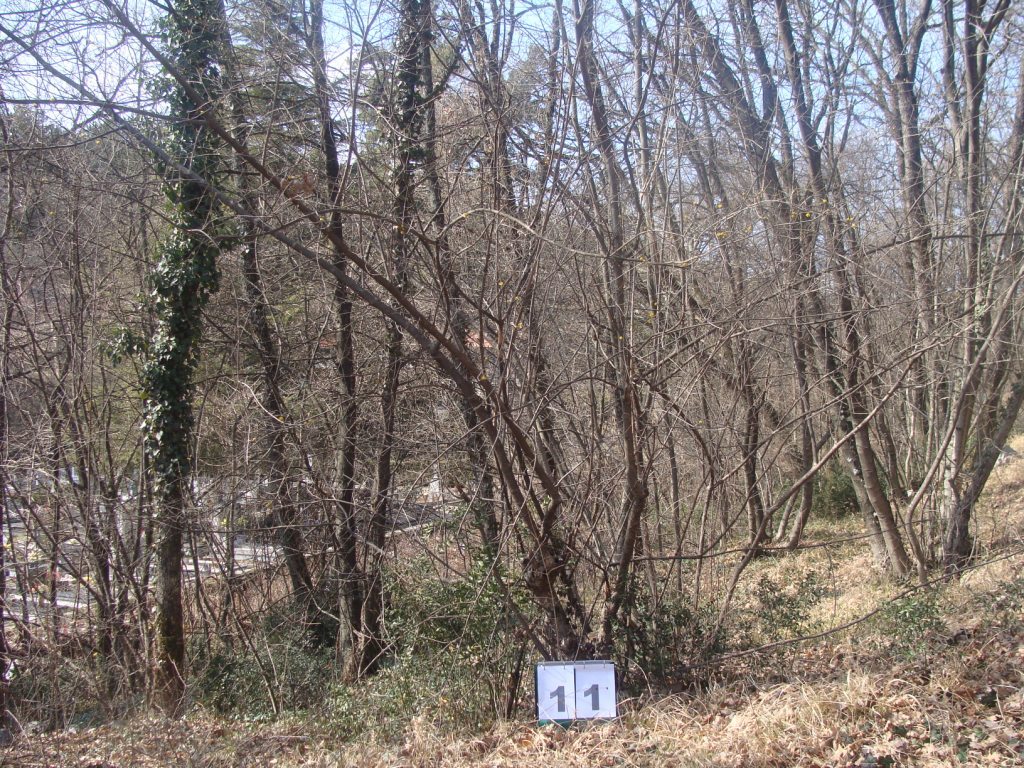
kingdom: Plantae
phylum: Tracheophyta
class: Magnoliopsida
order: Cornales
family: Cornaceae
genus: Cornus
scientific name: Cornus mas
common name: Cornelian-cherry
